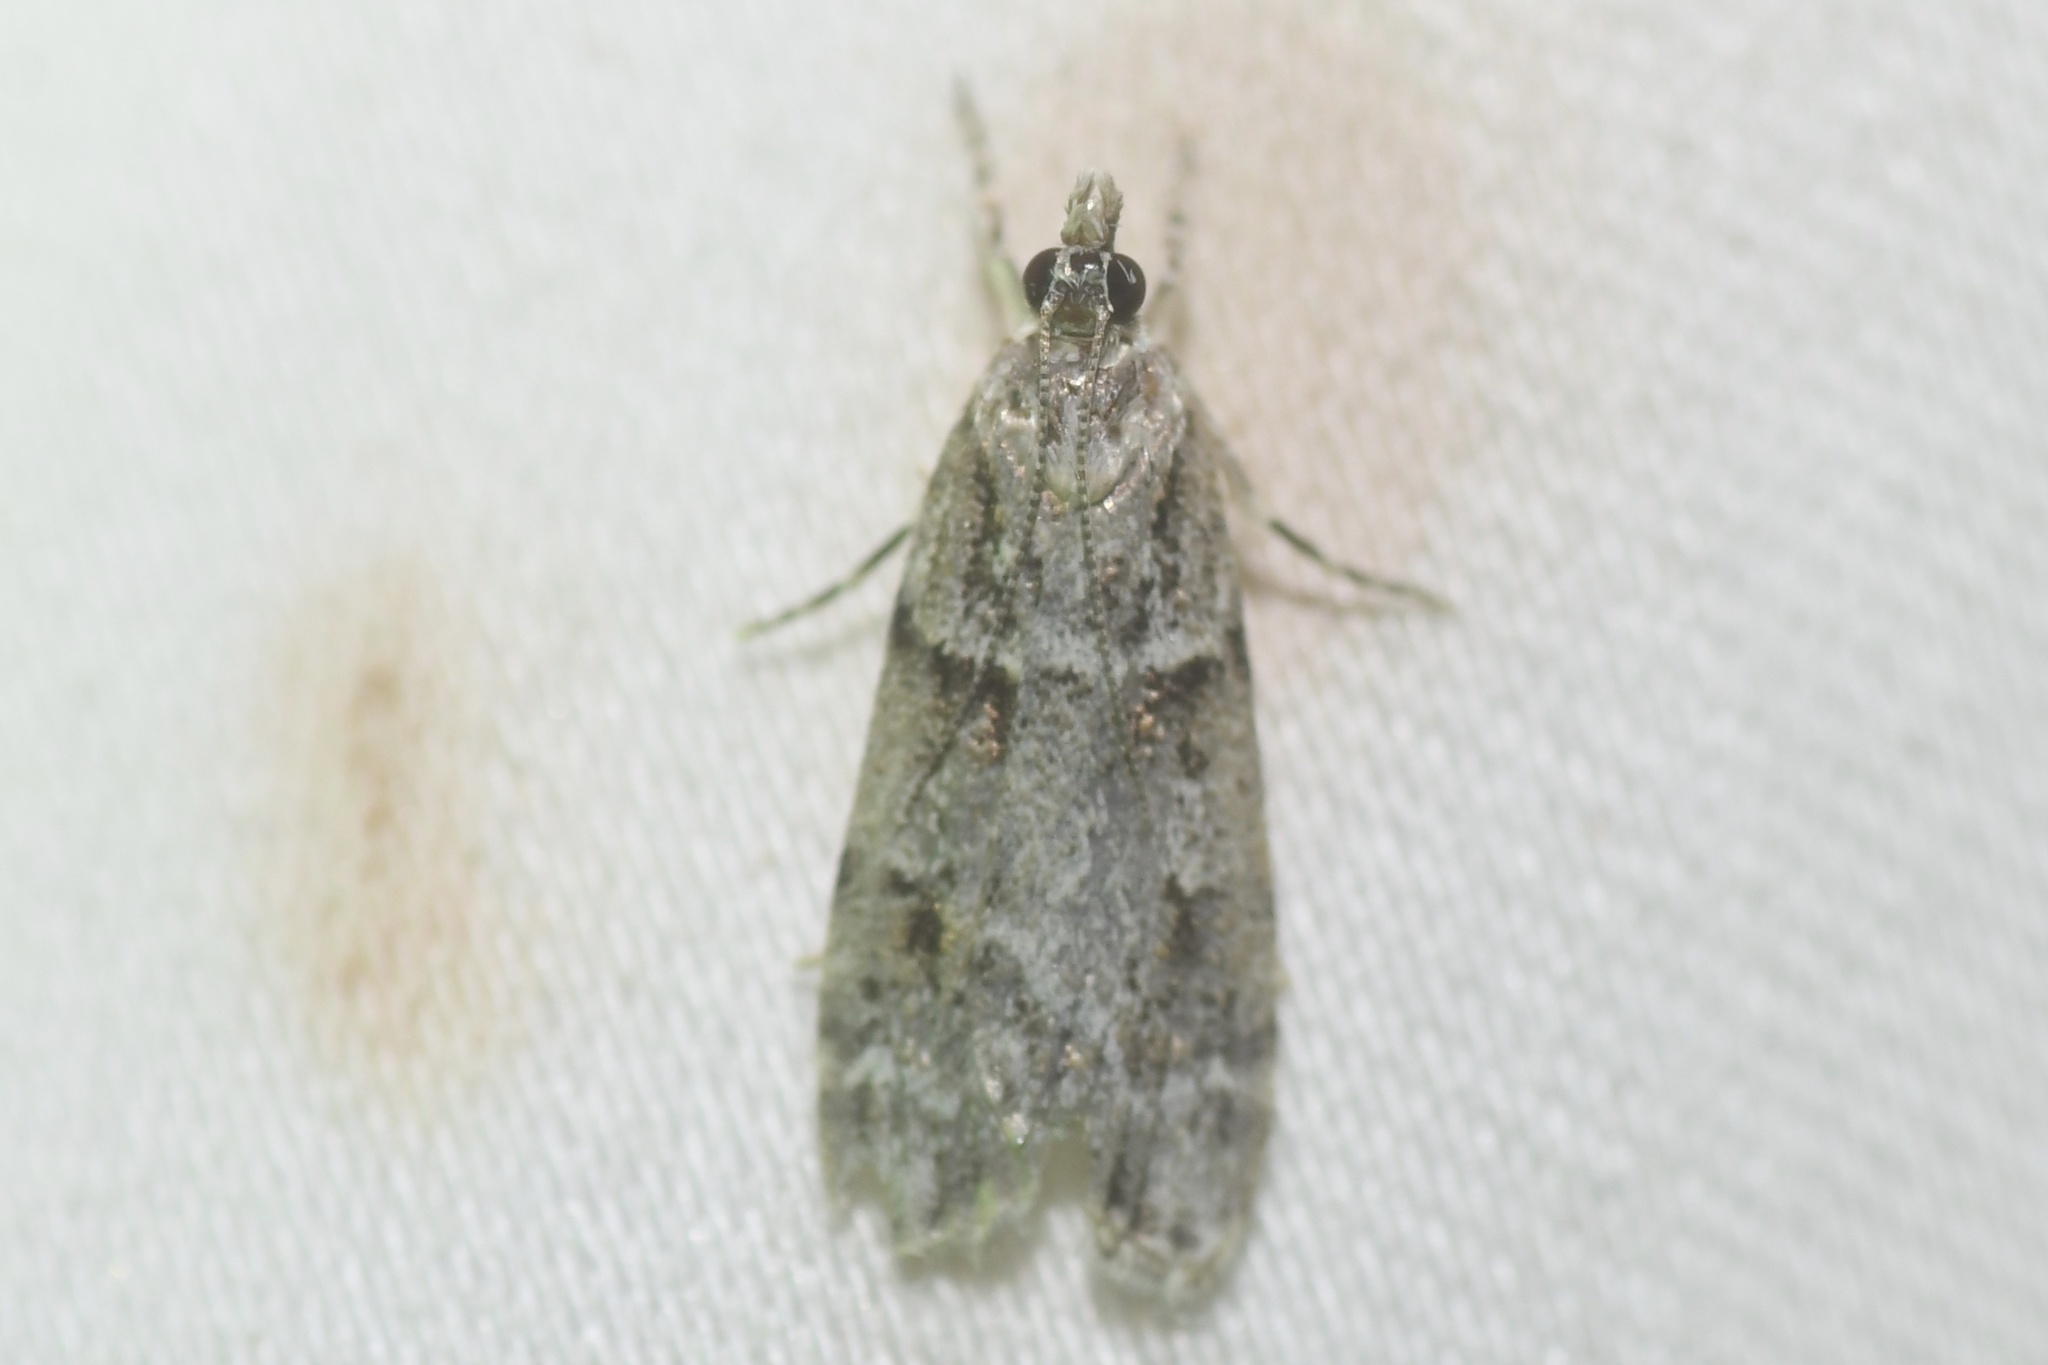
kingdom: Animalia
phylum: Arthropoda
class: Insecta
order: Lepidoptera
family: Crambidae
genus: Scoparia
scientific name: Scoparia biplagialis
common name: Double-striped scoparia moth
